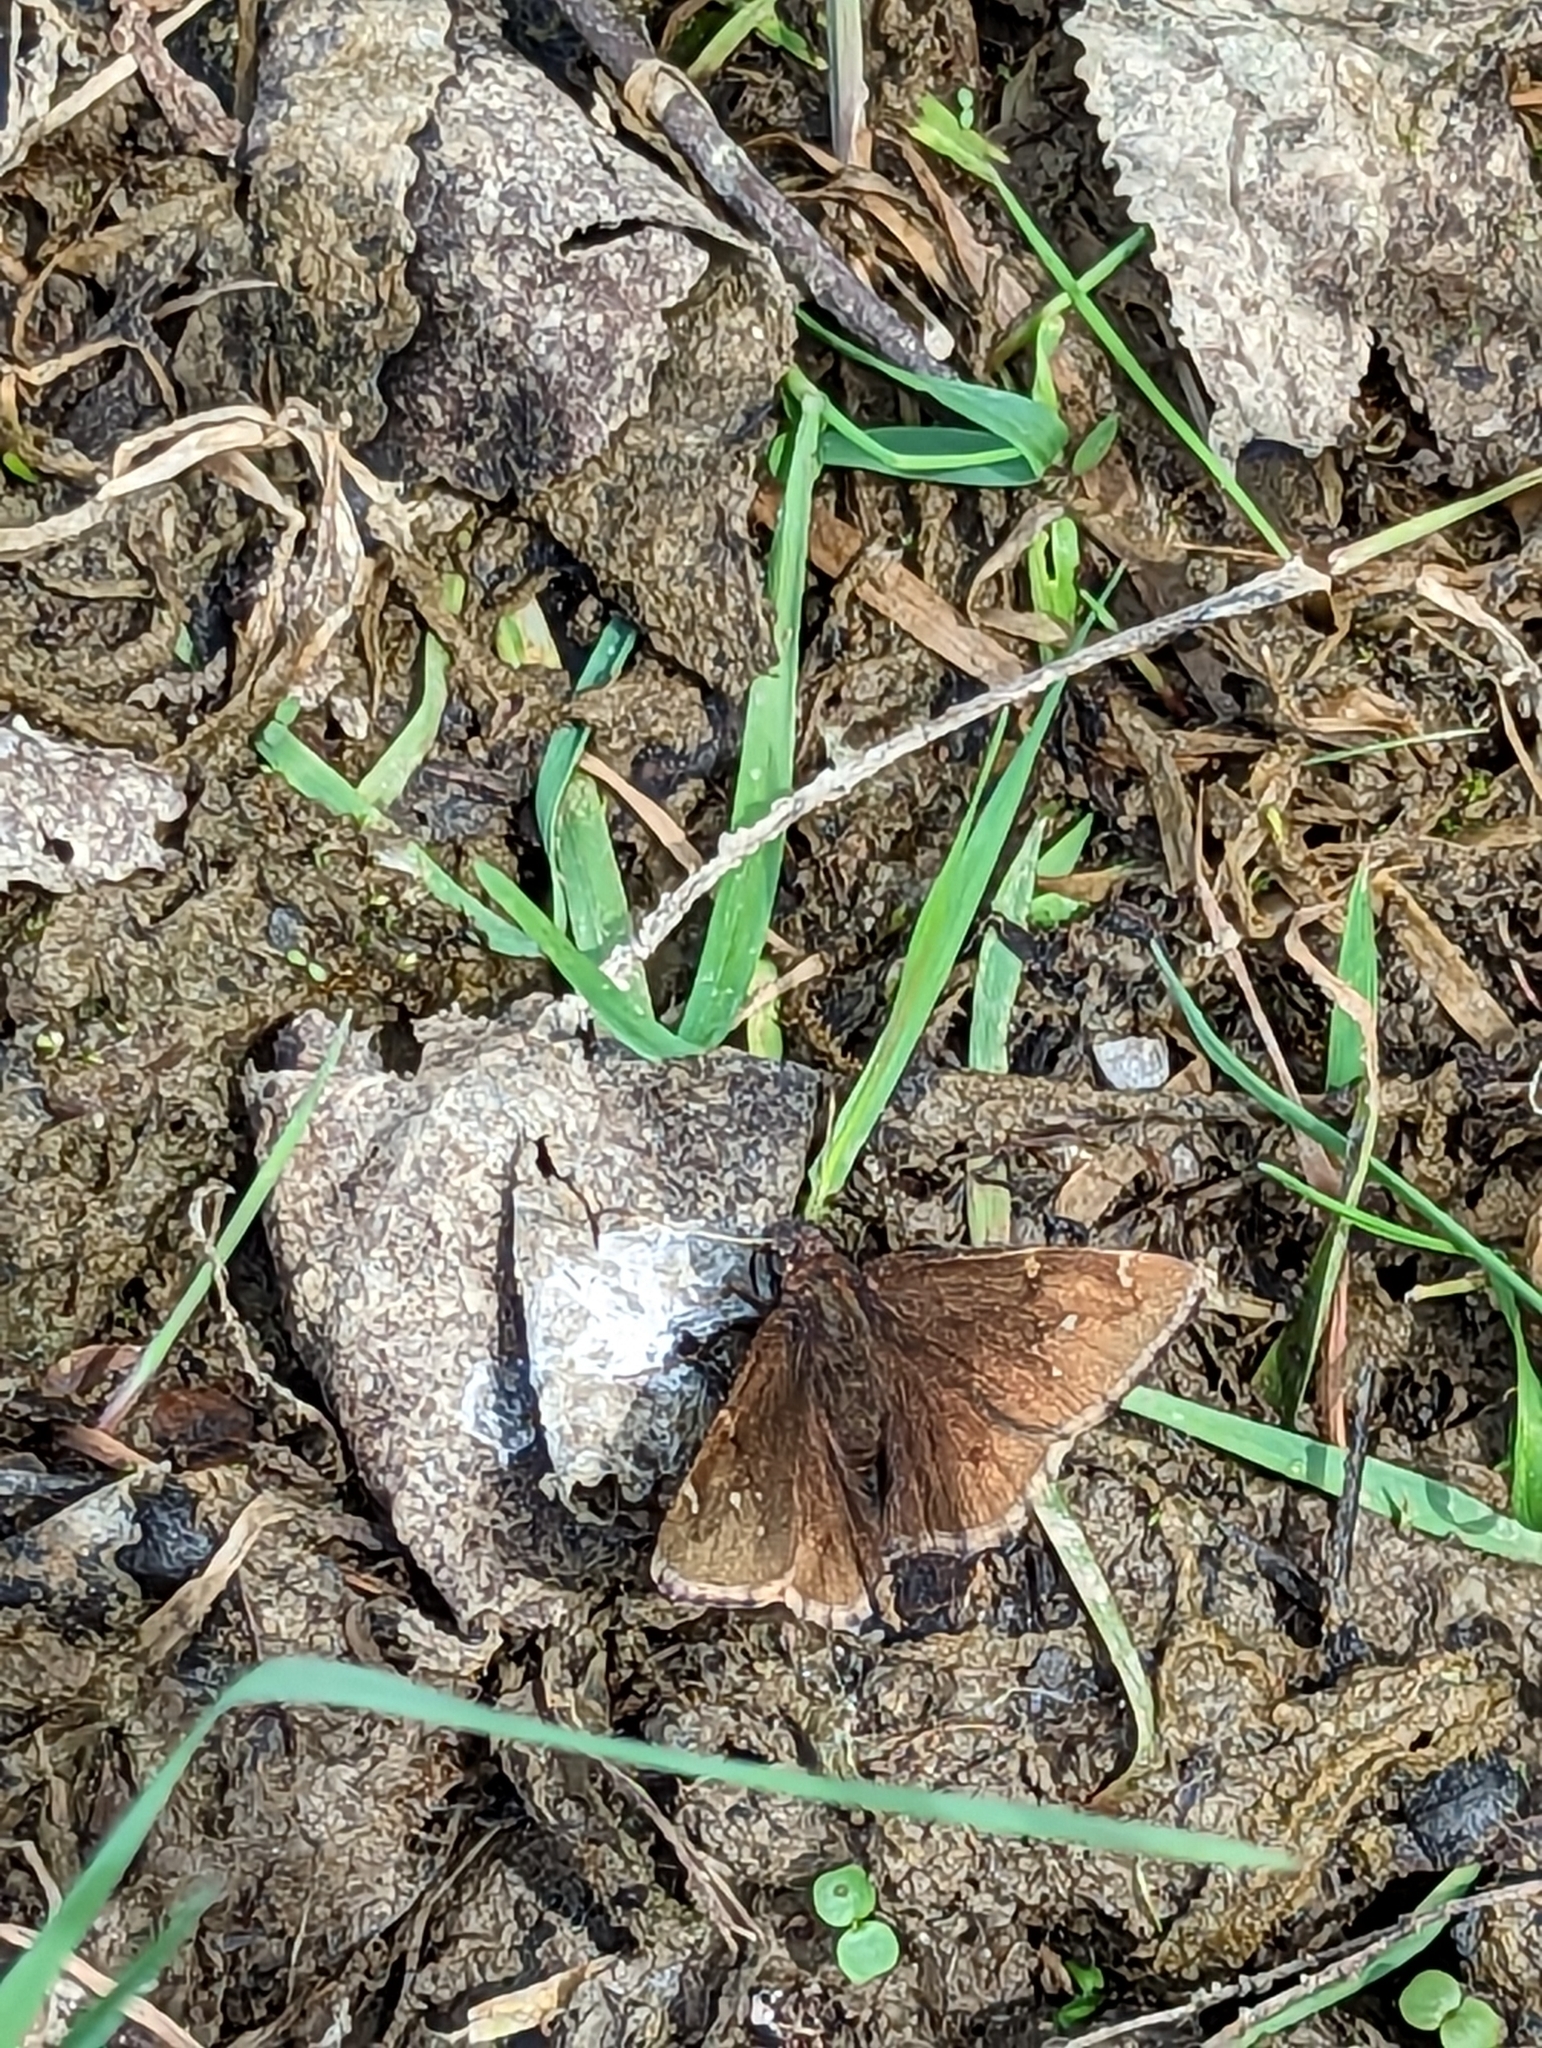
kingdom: Animalia
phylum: Arthropoda
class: Insecta
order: Lepidoptera
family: Hesperiidae
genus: Thorybes
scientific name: Thorybes pylades
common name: Northern cloudywing
